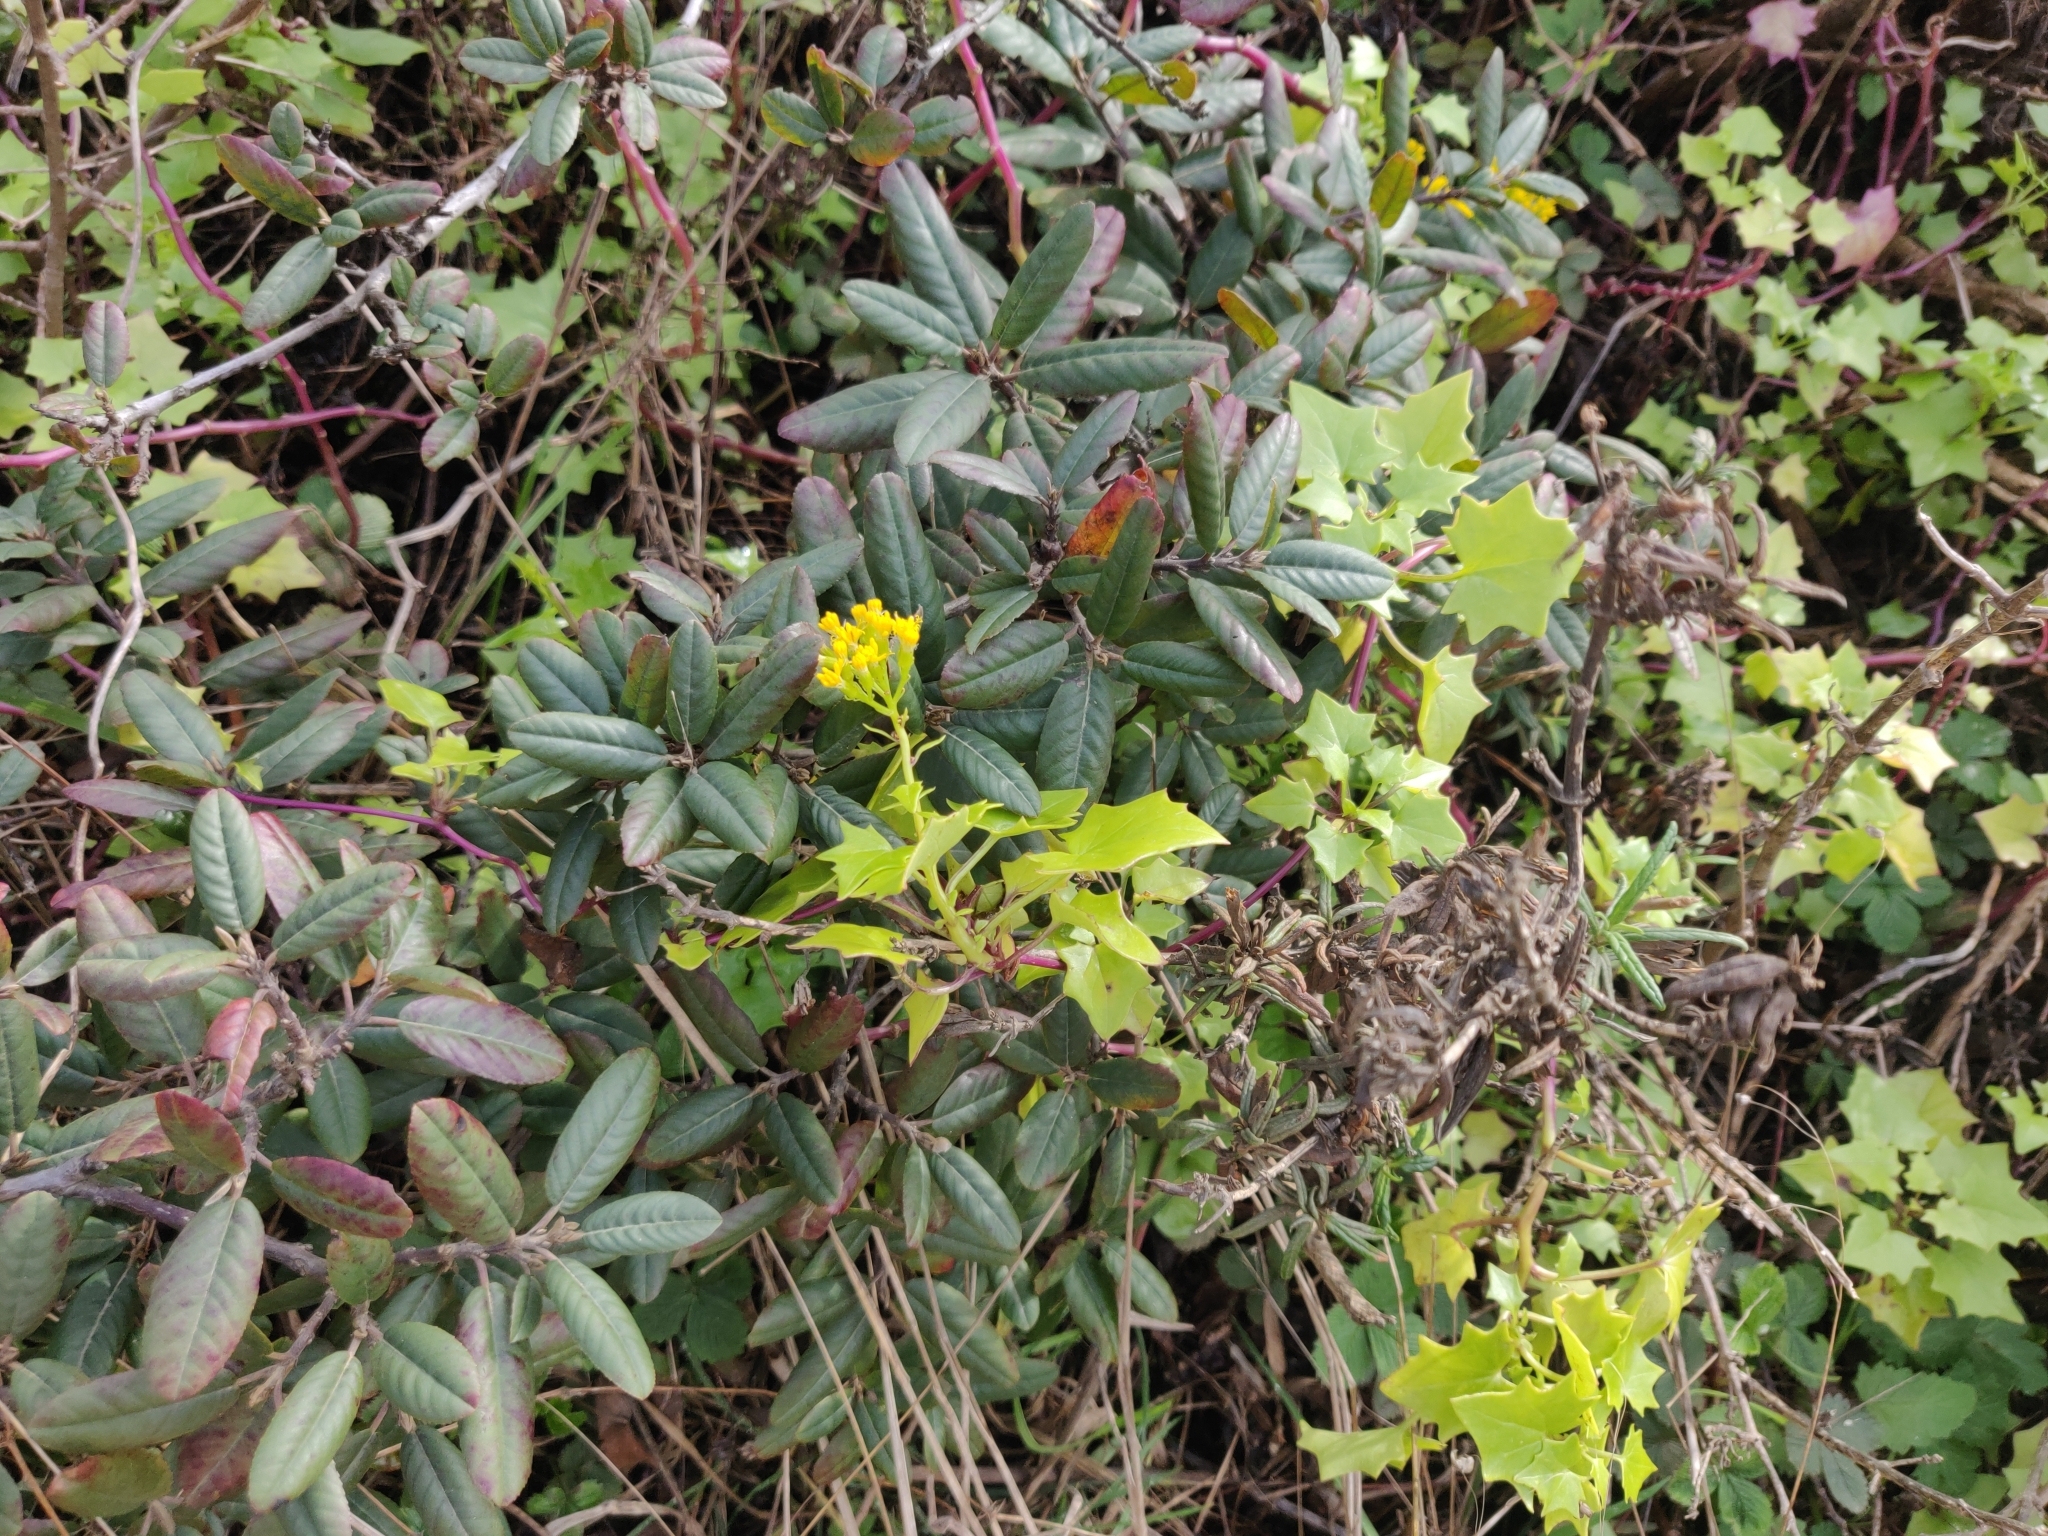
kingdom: Plantae
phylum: Tracheophyta
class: Magnoliopsida
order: Asterales
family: Asteraceae
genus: Delairea
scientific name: Delairea odorata
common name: Cape-ivy
